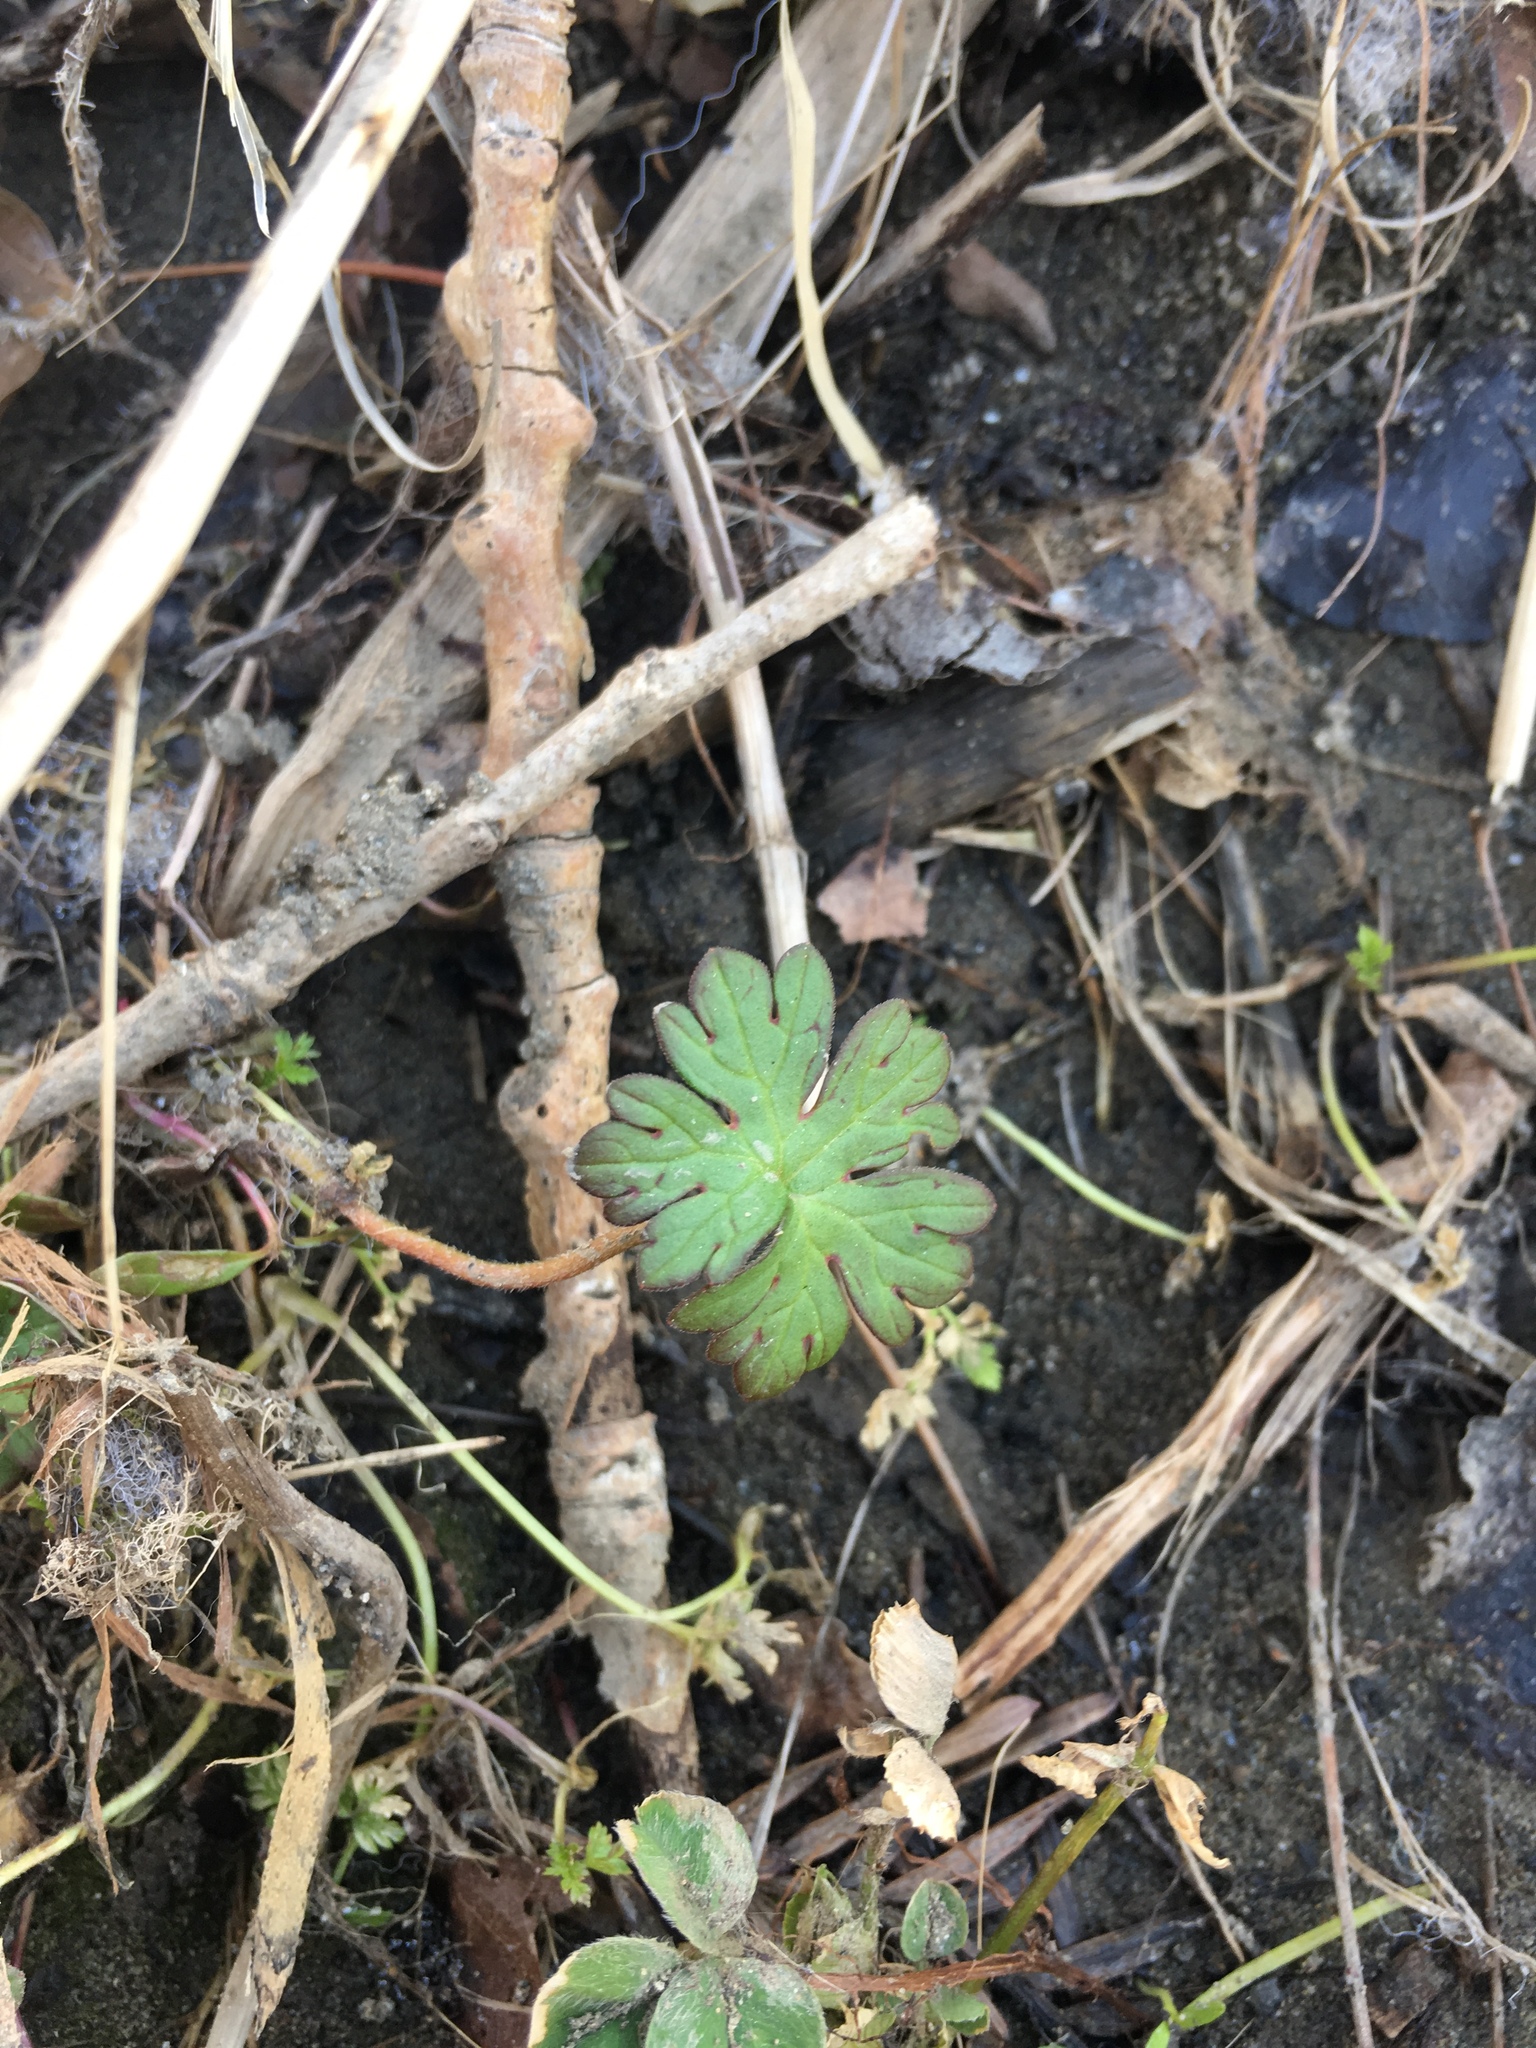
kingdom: Plantae
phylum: Tracheophyta
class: Magnoliopsida
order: Geraniales
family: Geraniaceae
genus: Geranium
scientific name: Geranium
